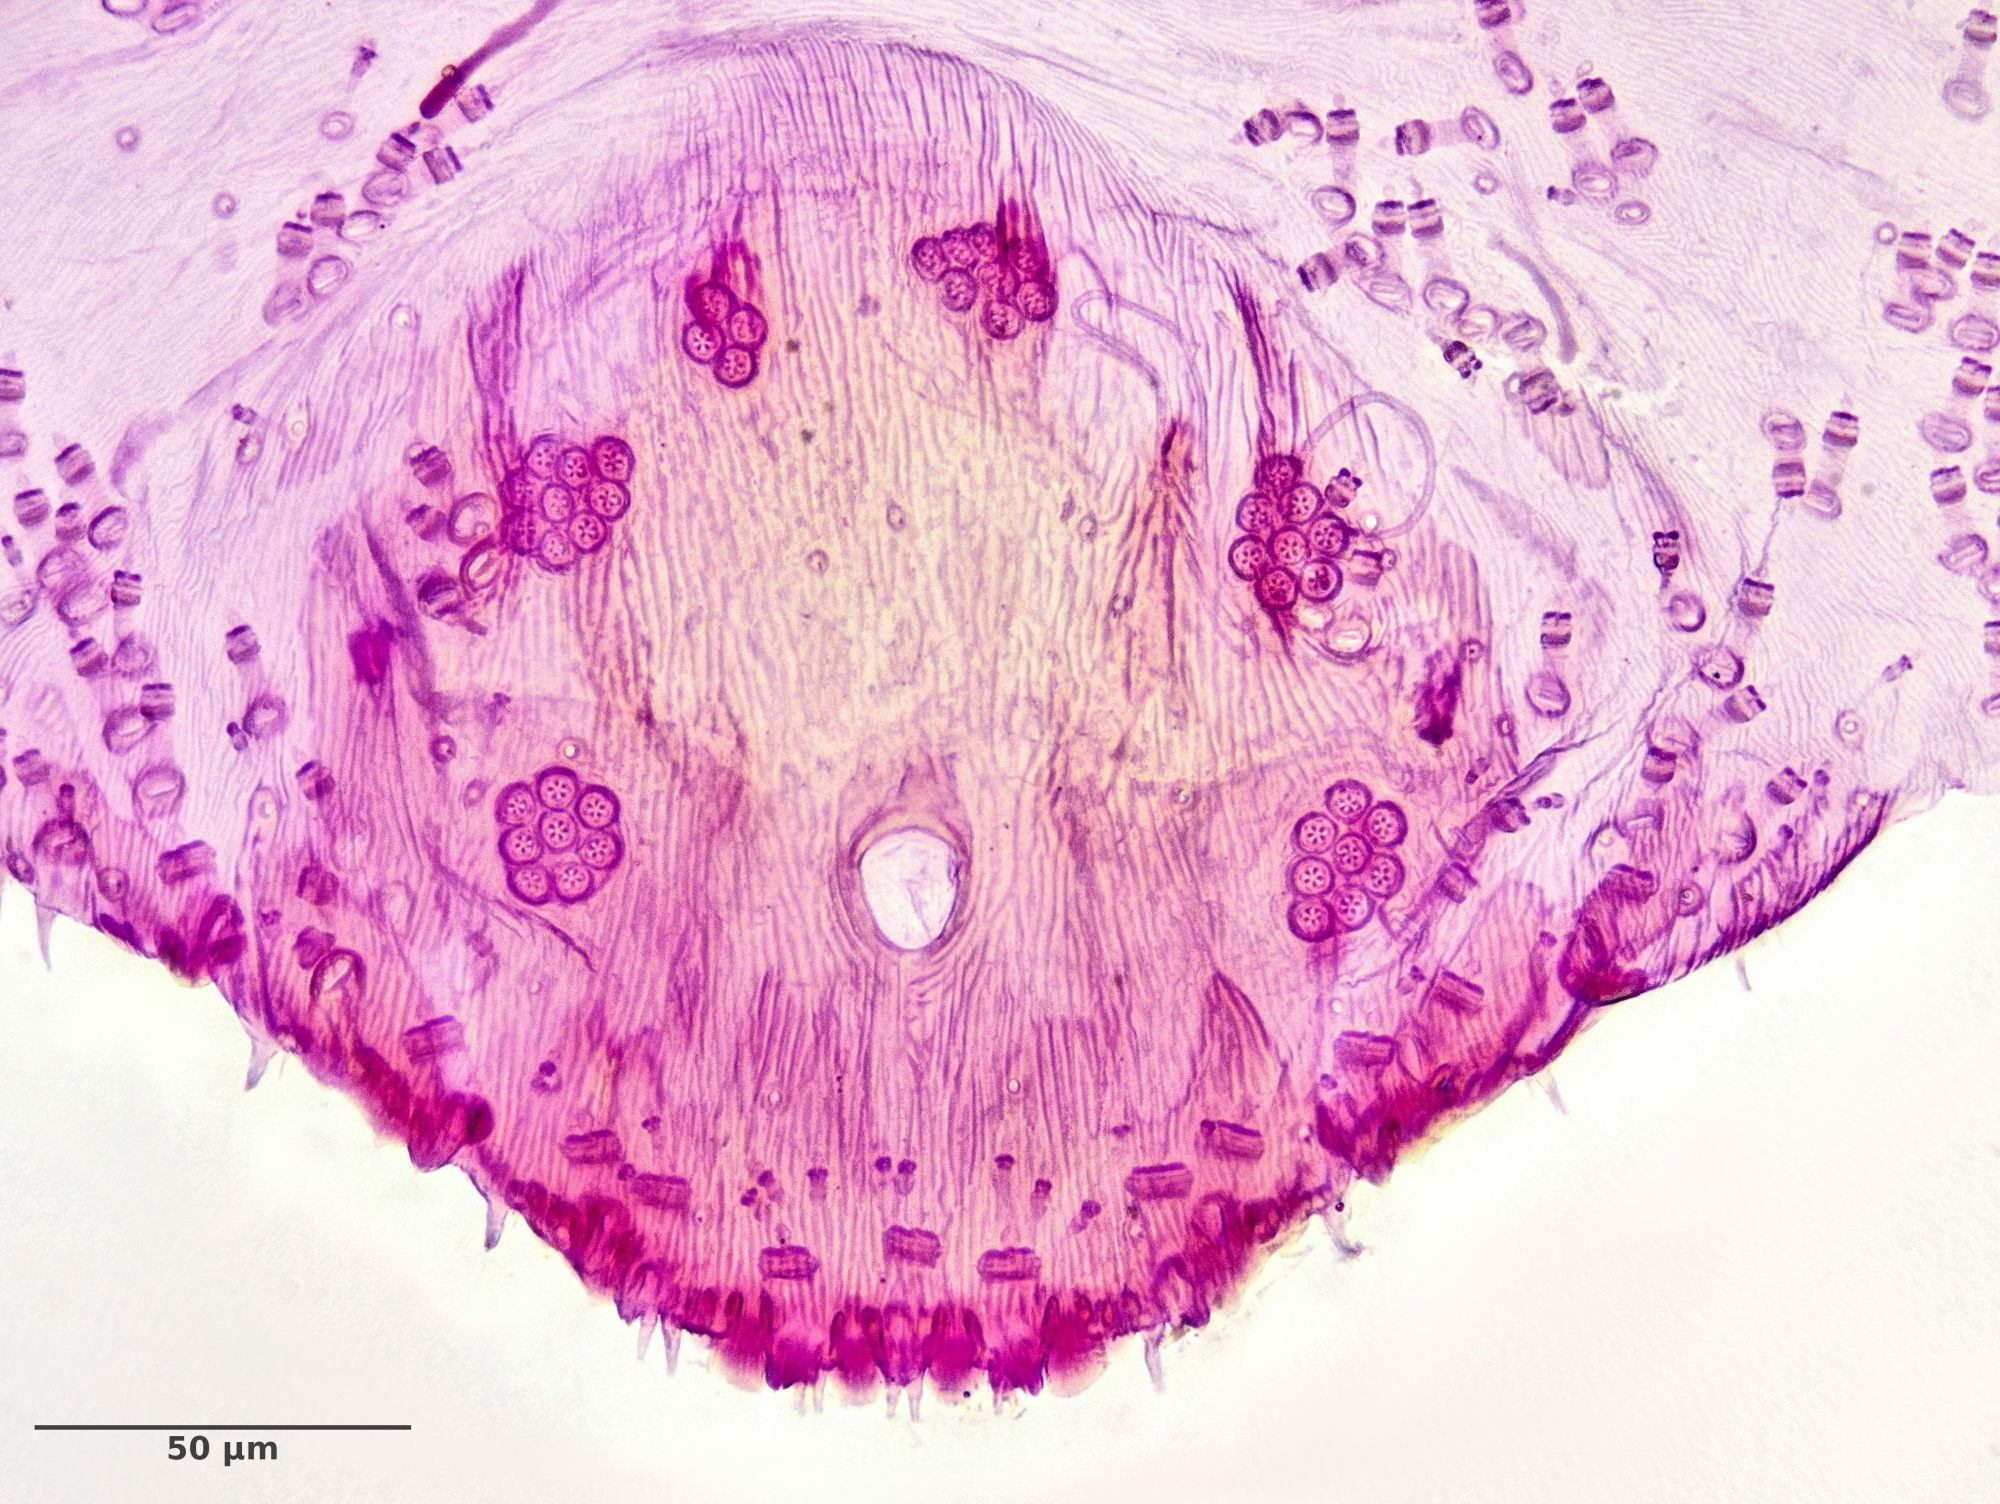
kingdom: Animalia
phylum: Arthropoda
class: Insecta
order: Hemiptera
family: Diaspididae
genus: Carulaspis
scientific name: Carulaspis juniperi
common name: Juniper scale
